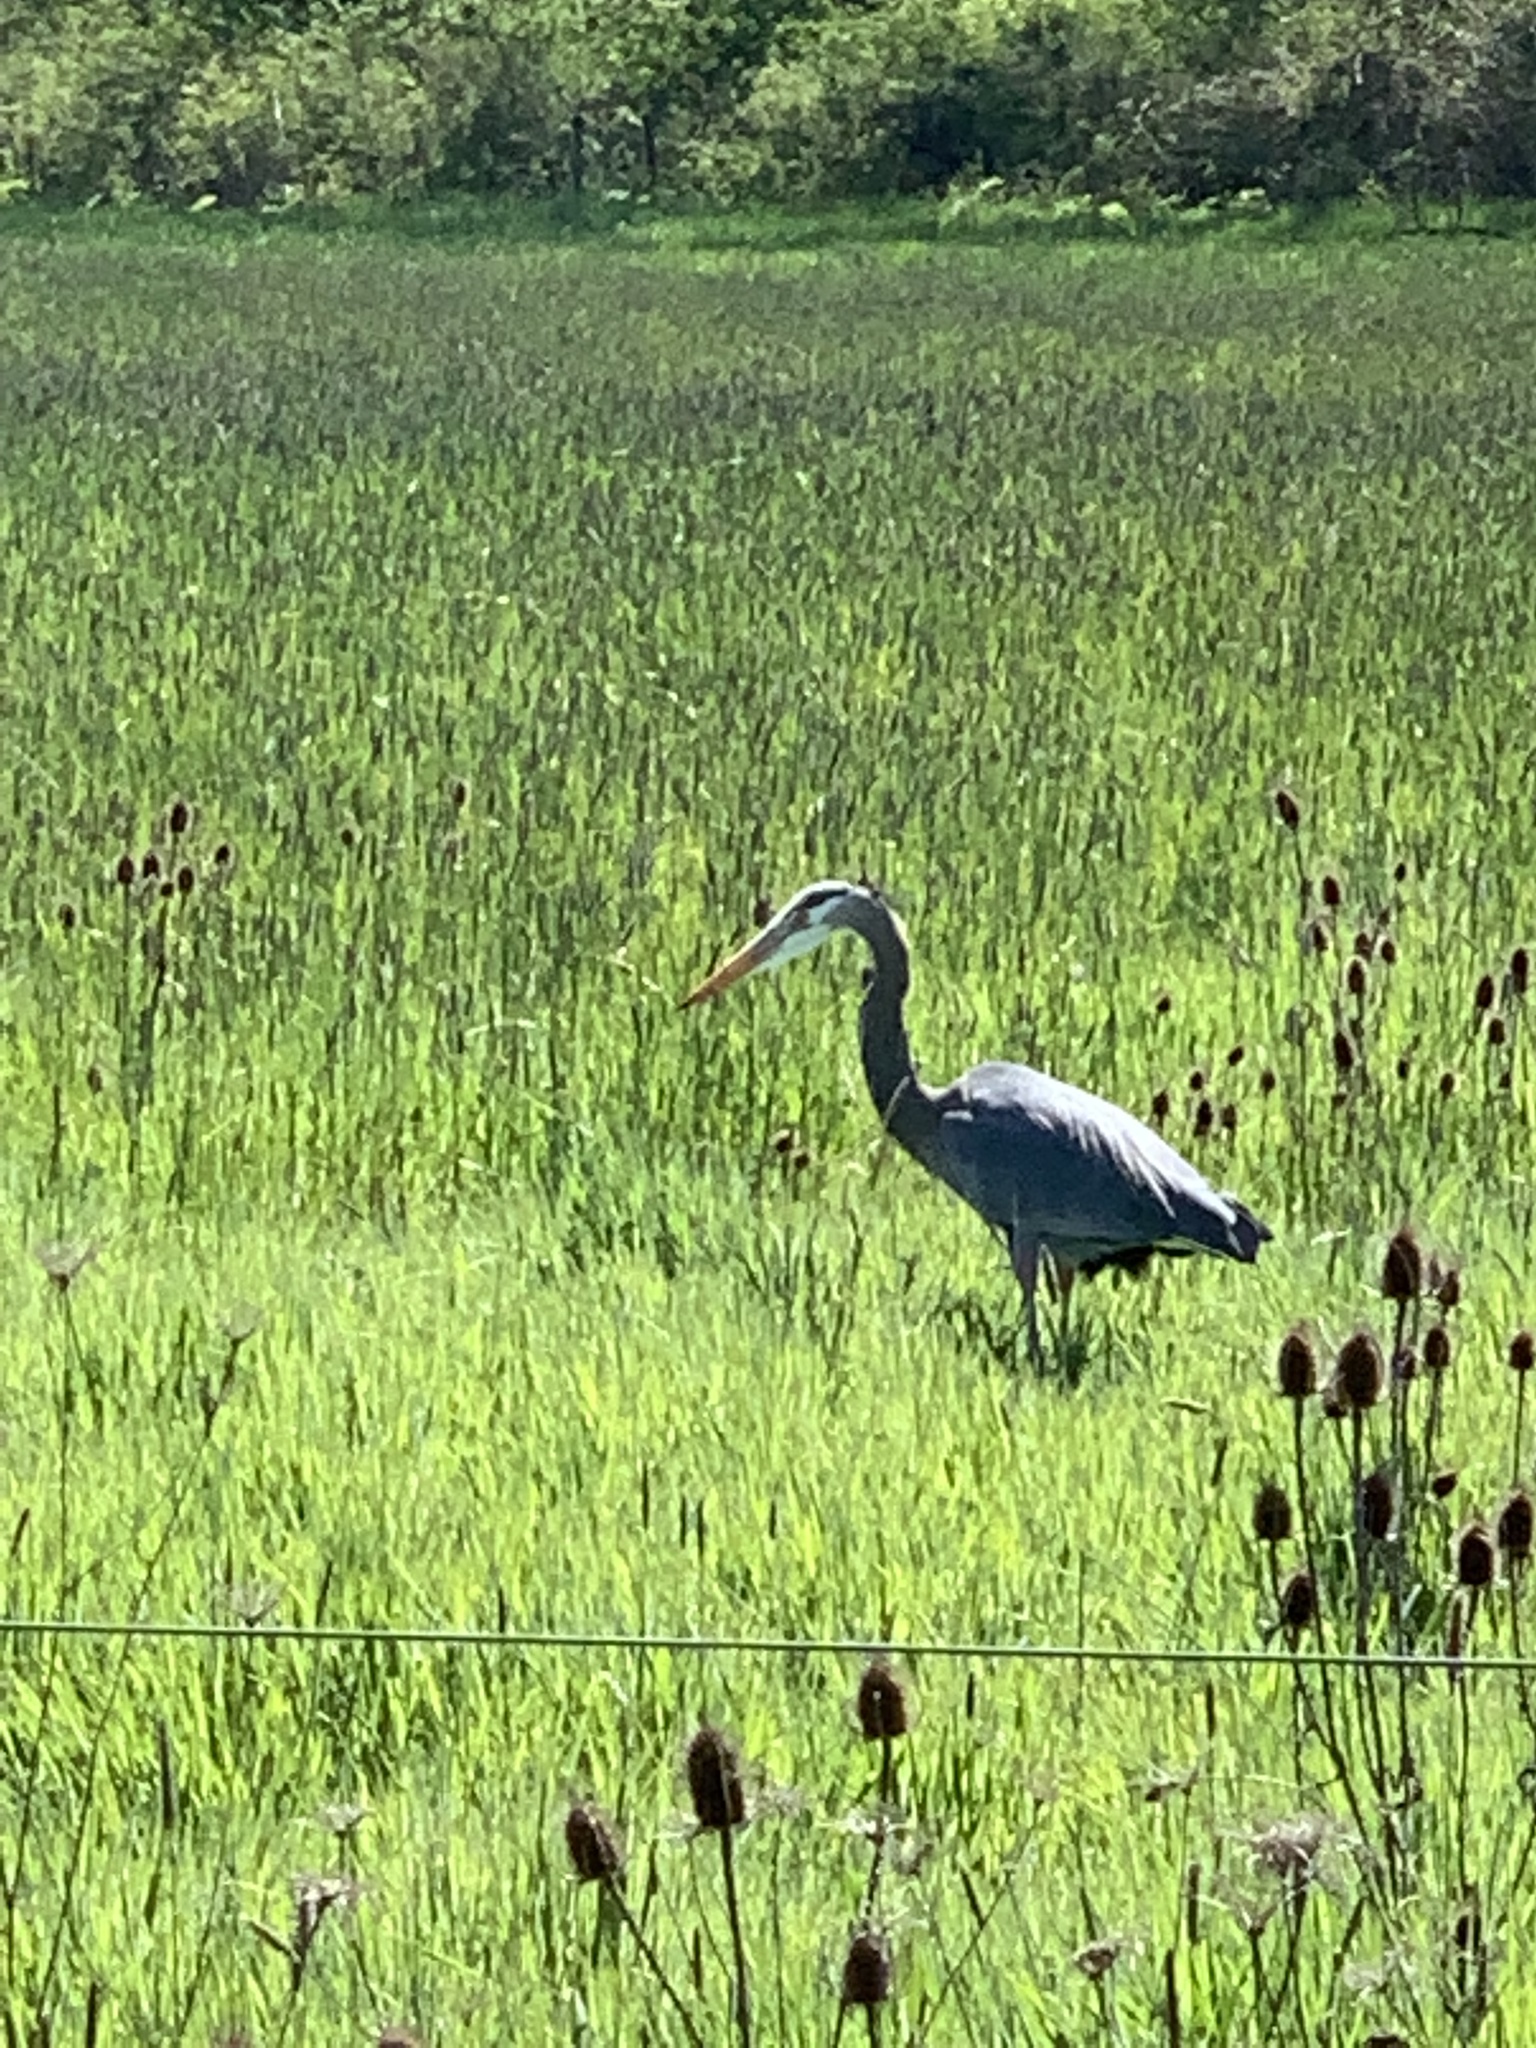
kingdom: Animalia
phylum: Chordata
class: Aves
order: Pelecaniformes
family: Ardeidae
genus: Ardea
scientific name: Ardea herodias
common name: Great blue heron
